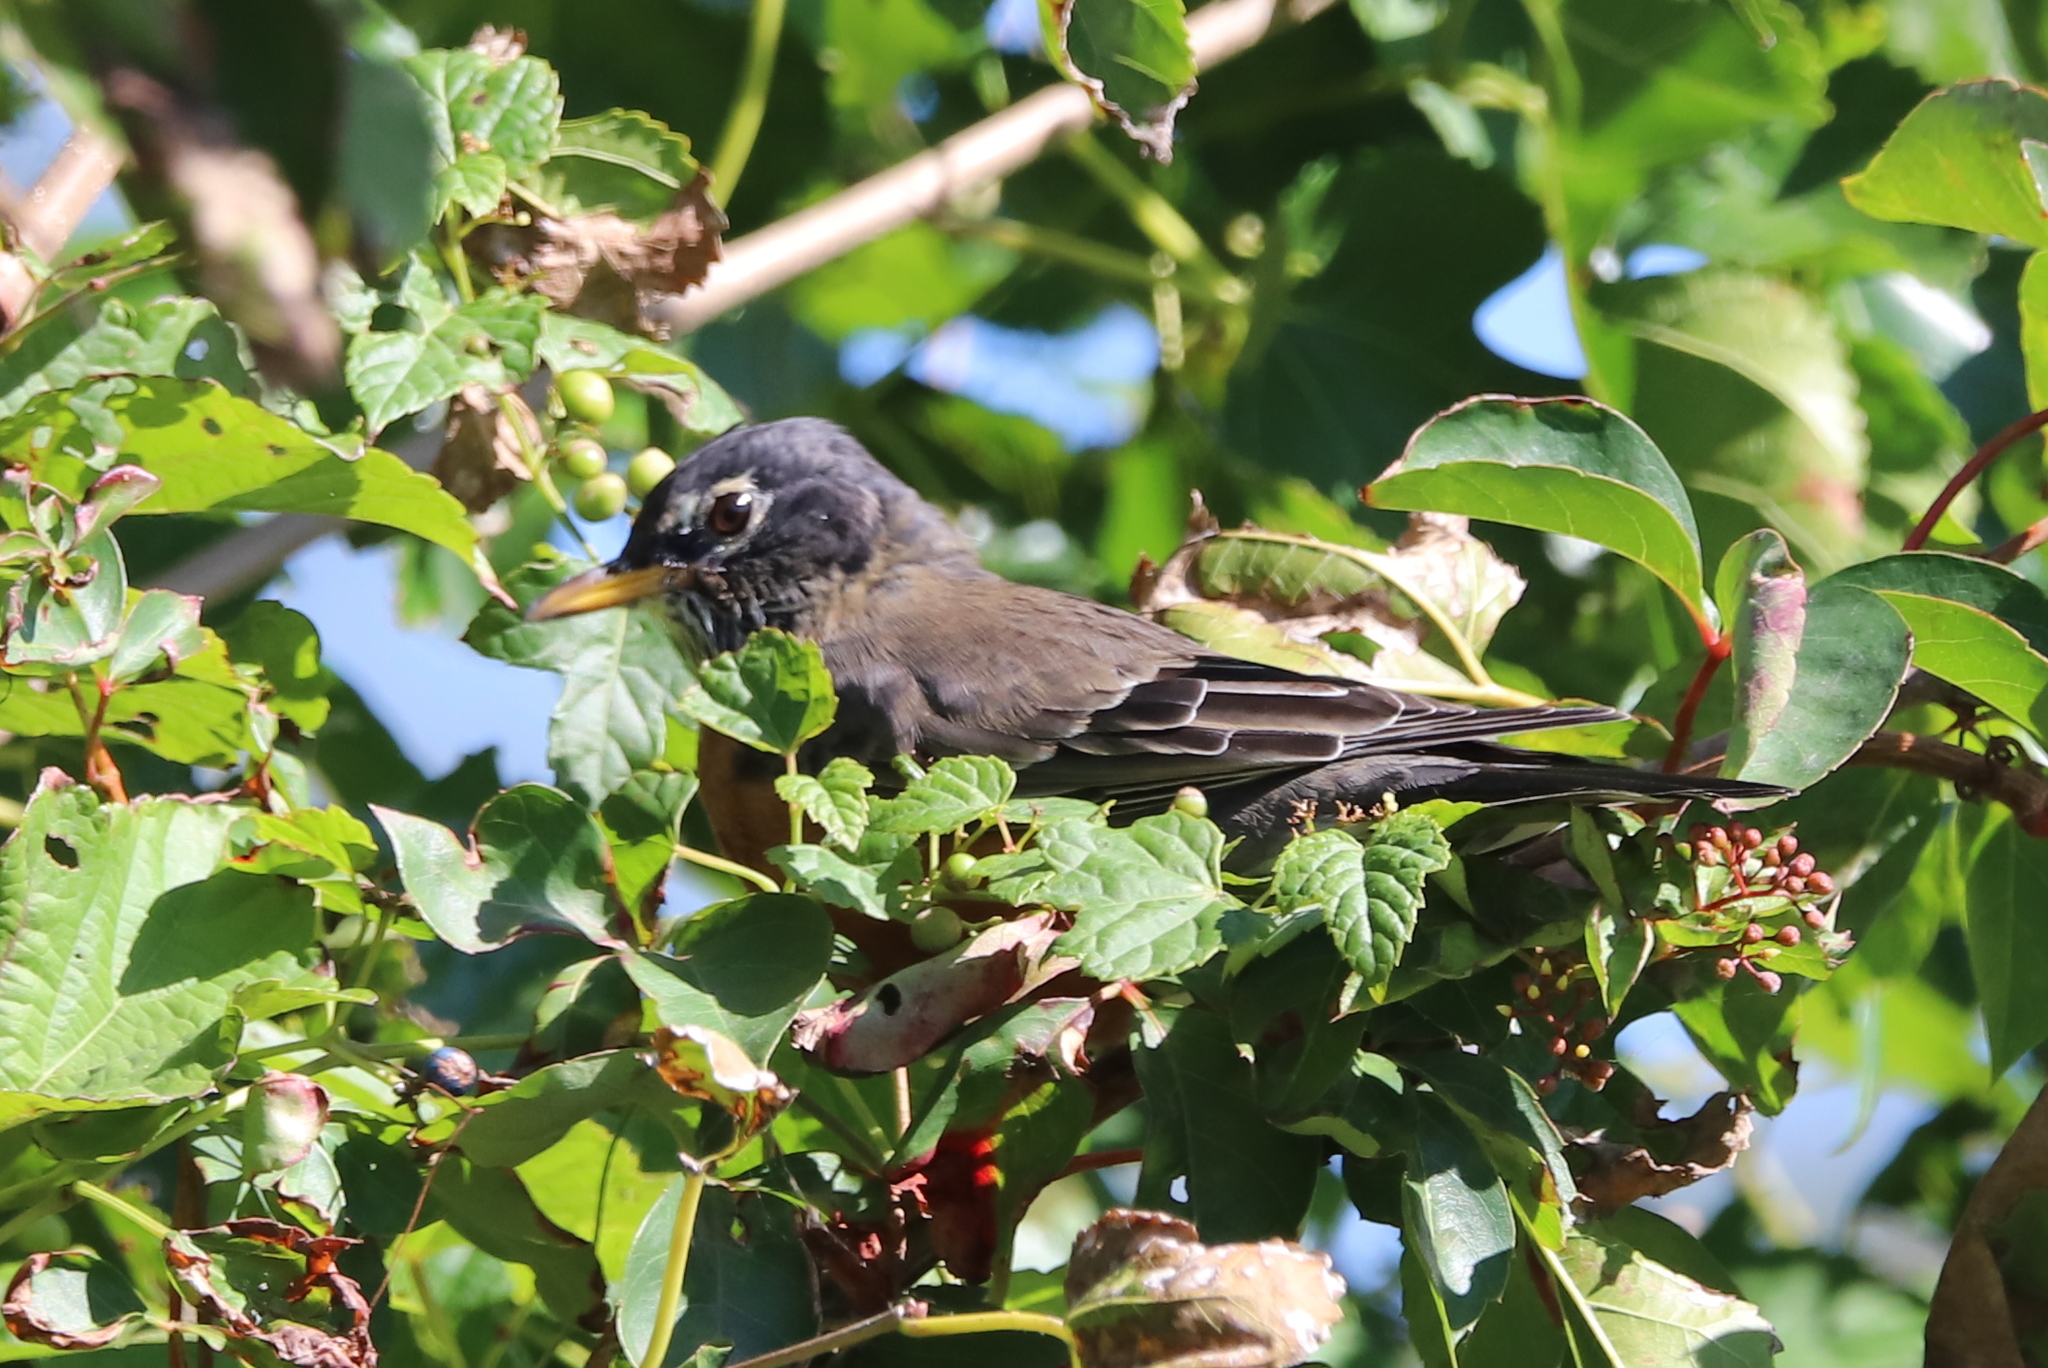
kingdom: Animalia
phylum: Chordata
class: Aves
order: Passeriformes
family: Turdidae
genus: Turdus
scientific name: Turdus migratorius
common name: American robin
